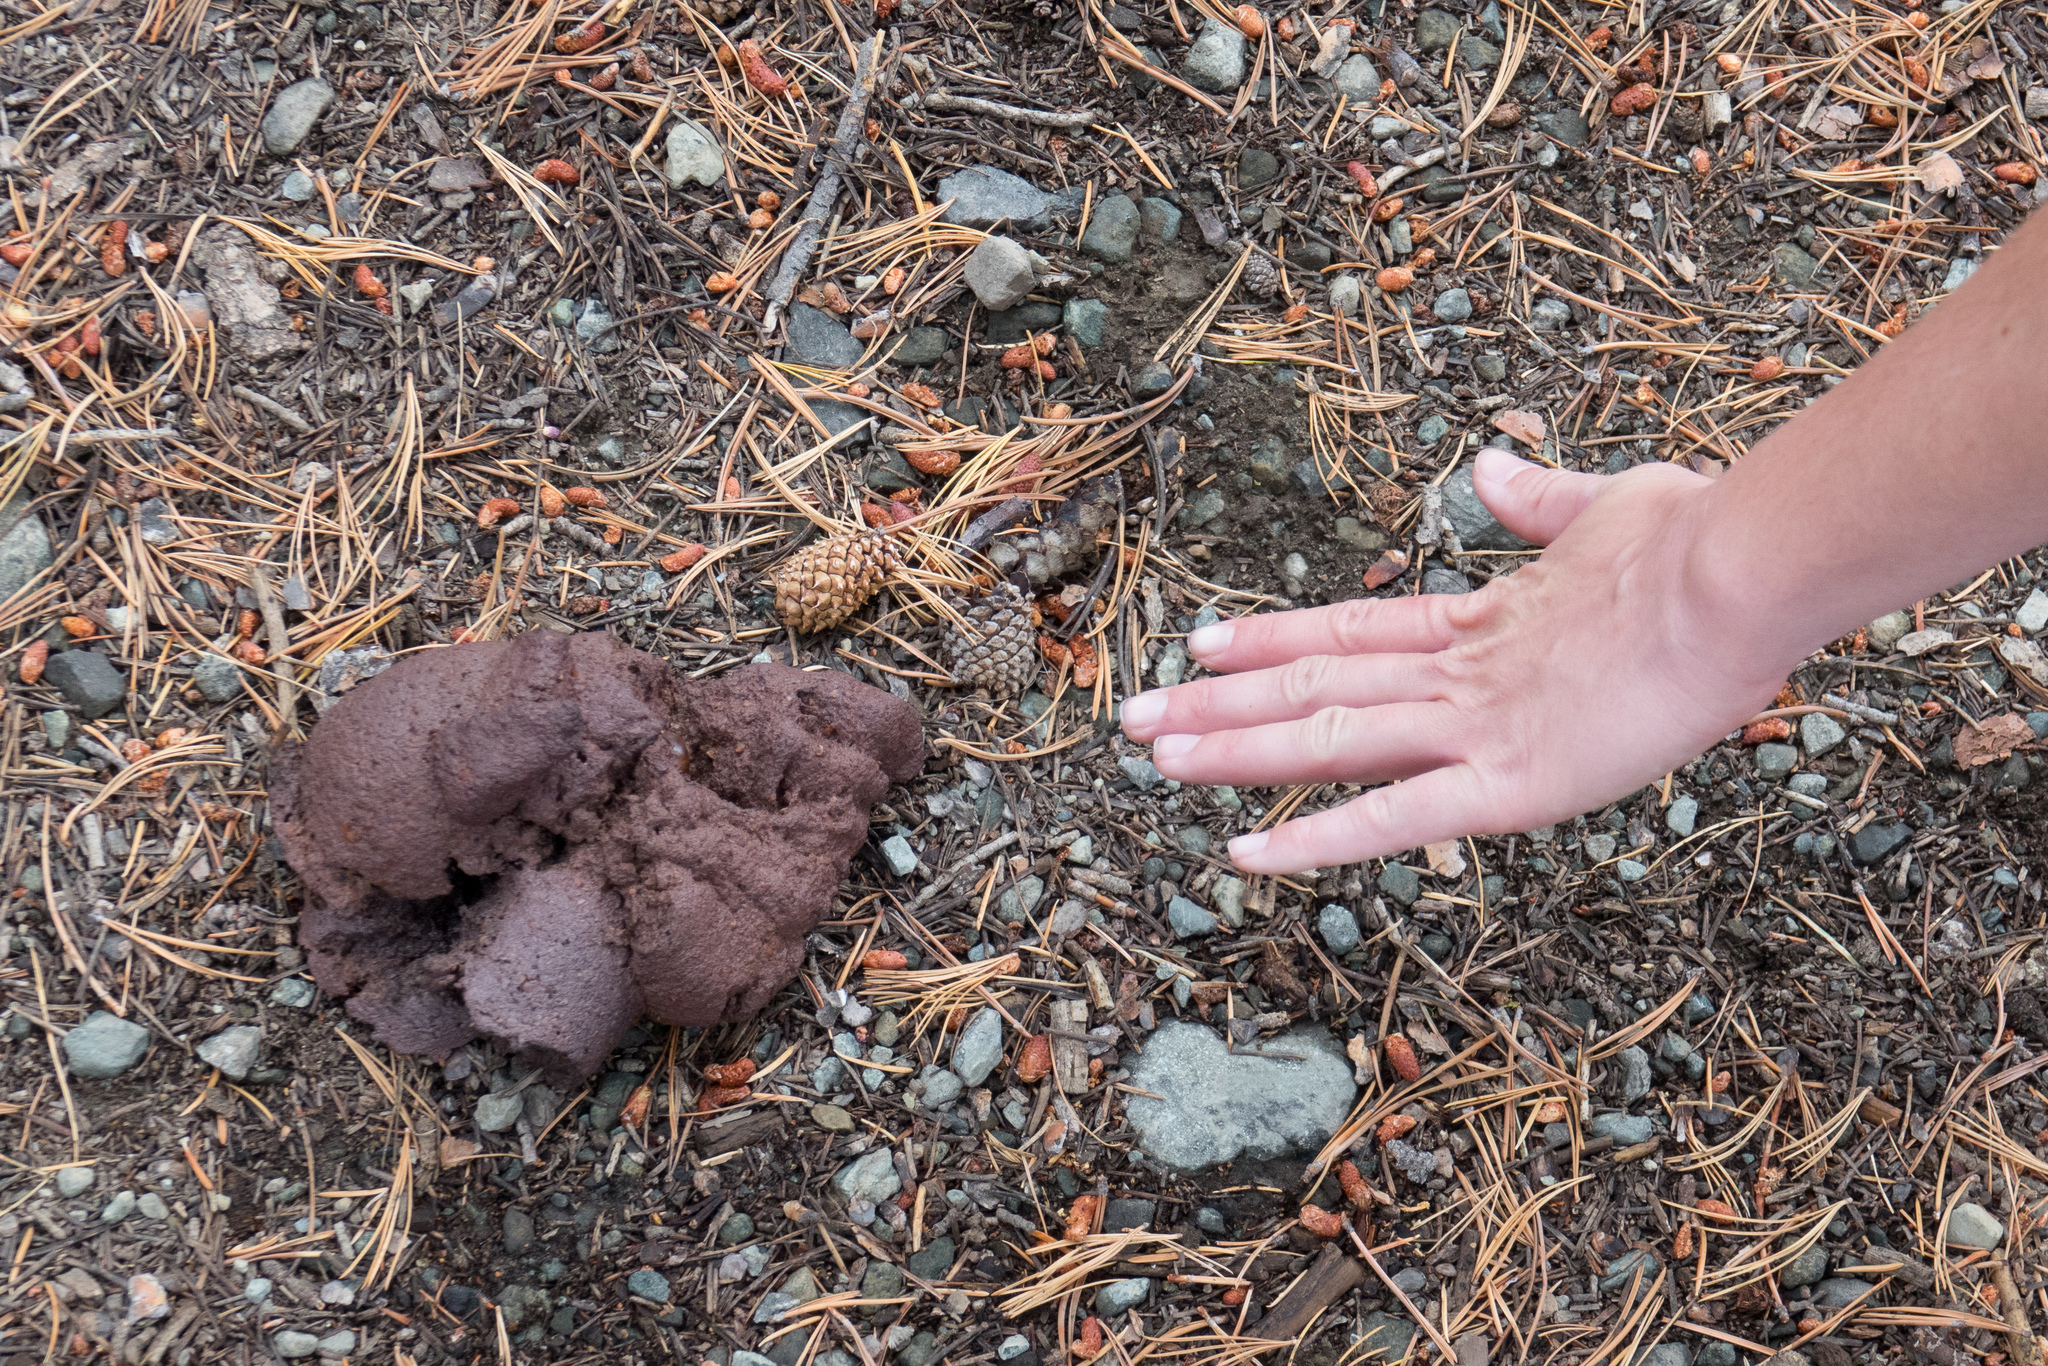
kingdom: Animalia
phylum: Chordata
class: Mammalia
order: Carnivora
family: Ursidae
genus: Ursus
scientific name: Ursus americanus
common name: American black bear
